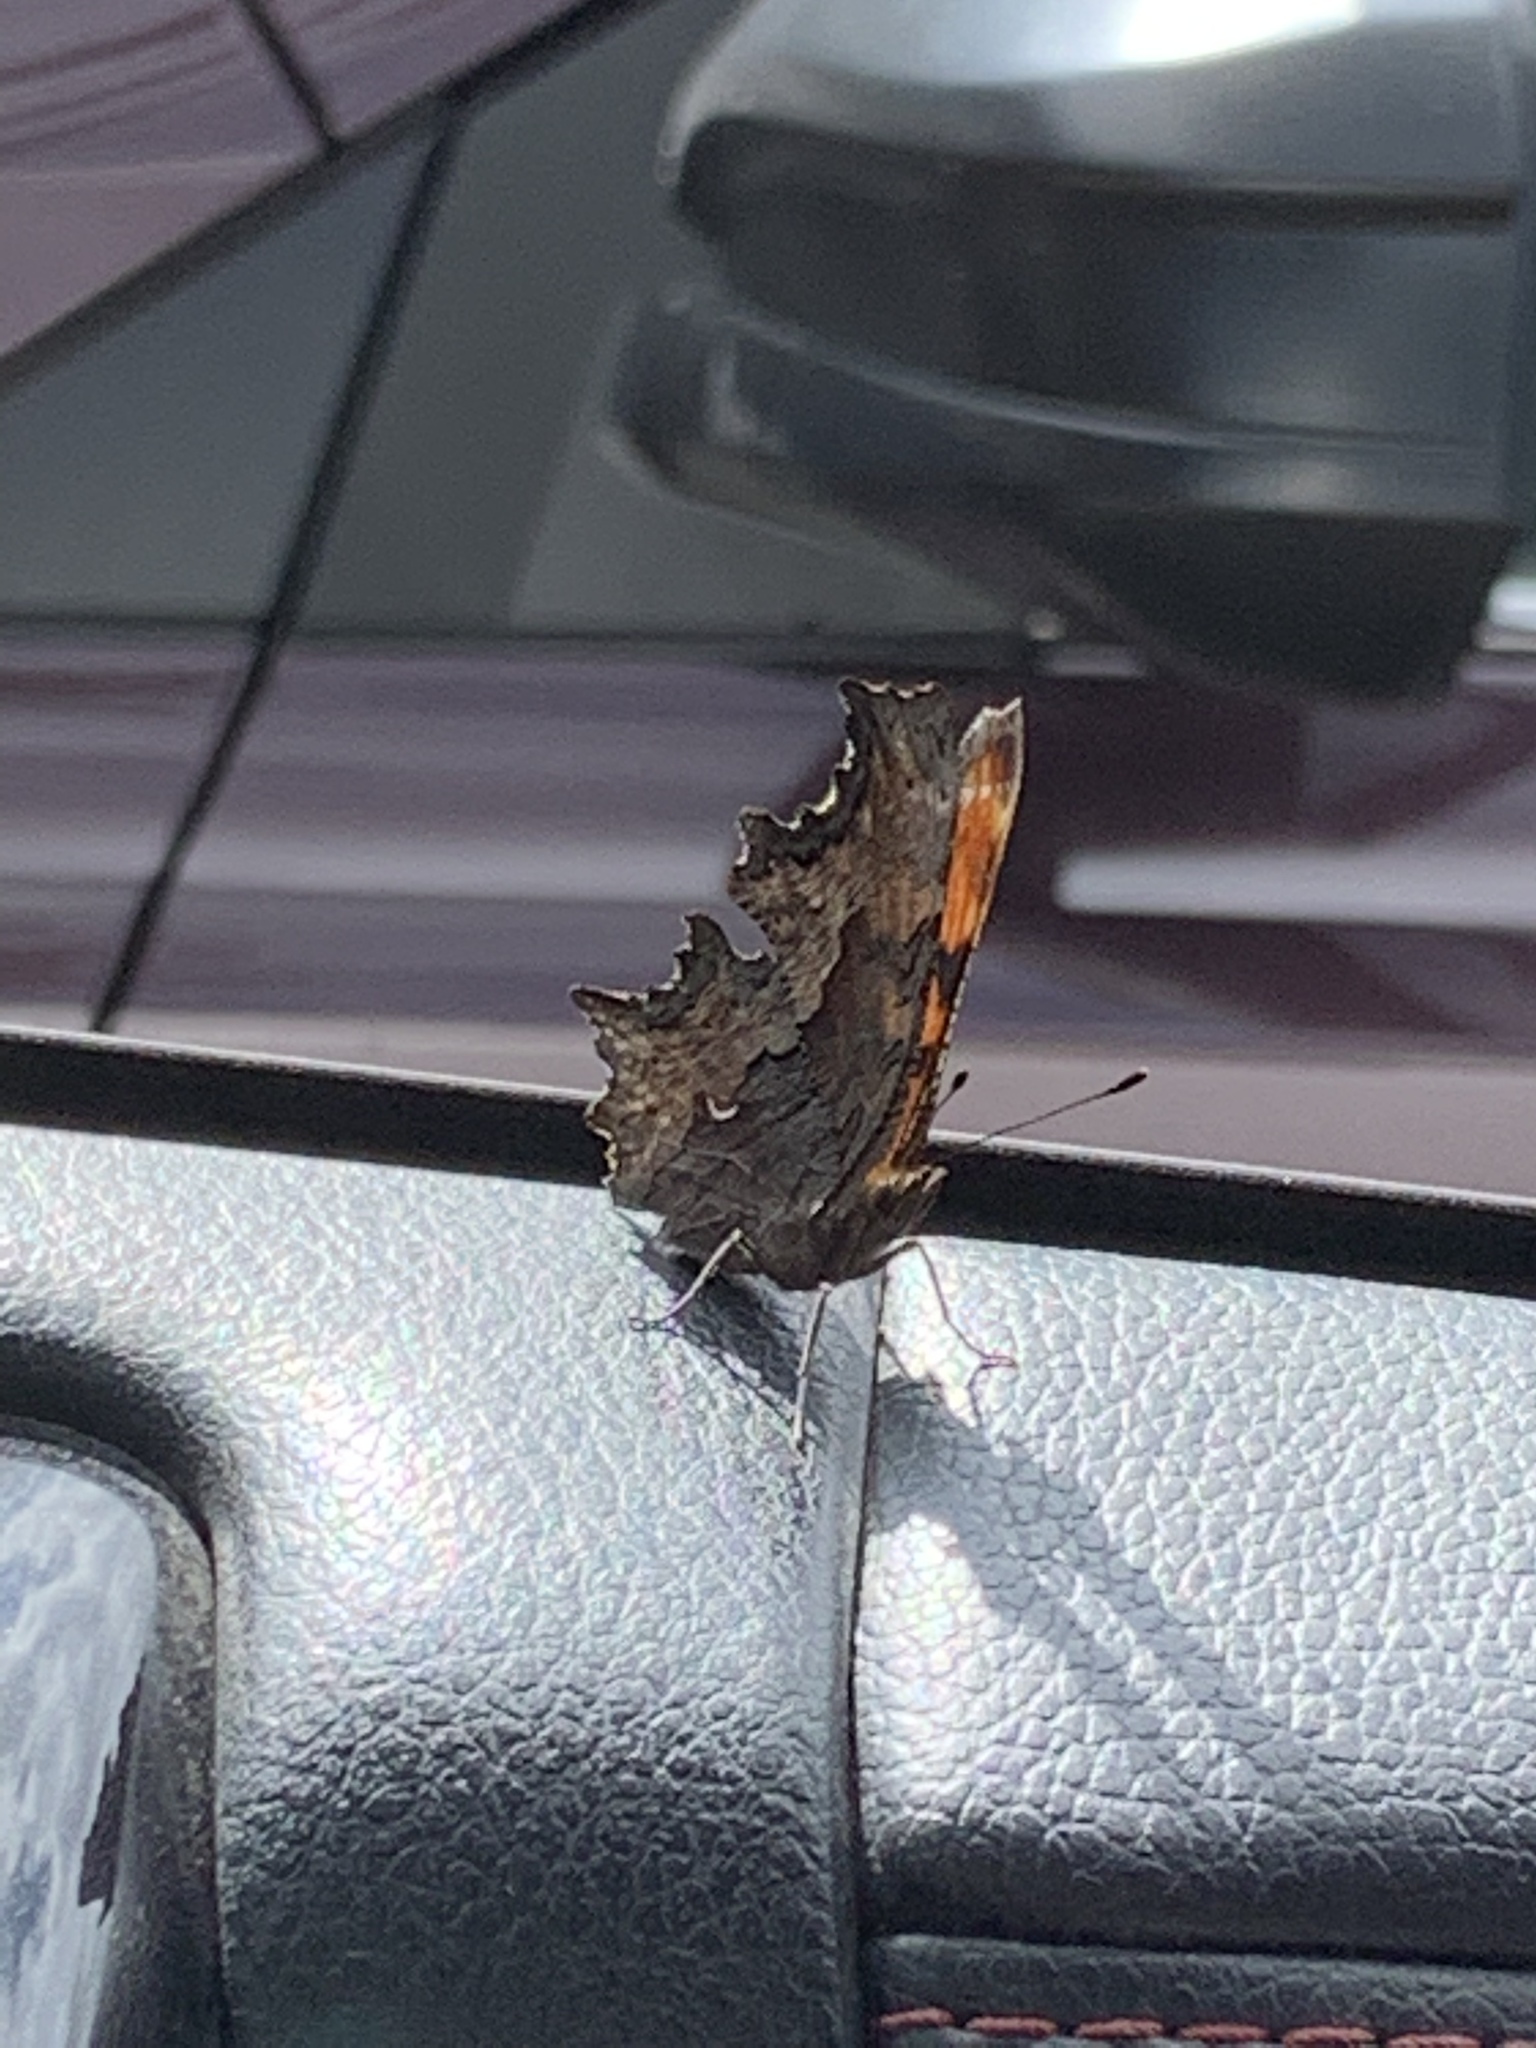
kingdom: Animalia
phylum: Arthropoda
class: Insecta
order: Lepidoptera
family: Nymphalidae
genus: Polygonia
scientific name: Polygonia gracilis
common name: Hoary comma
